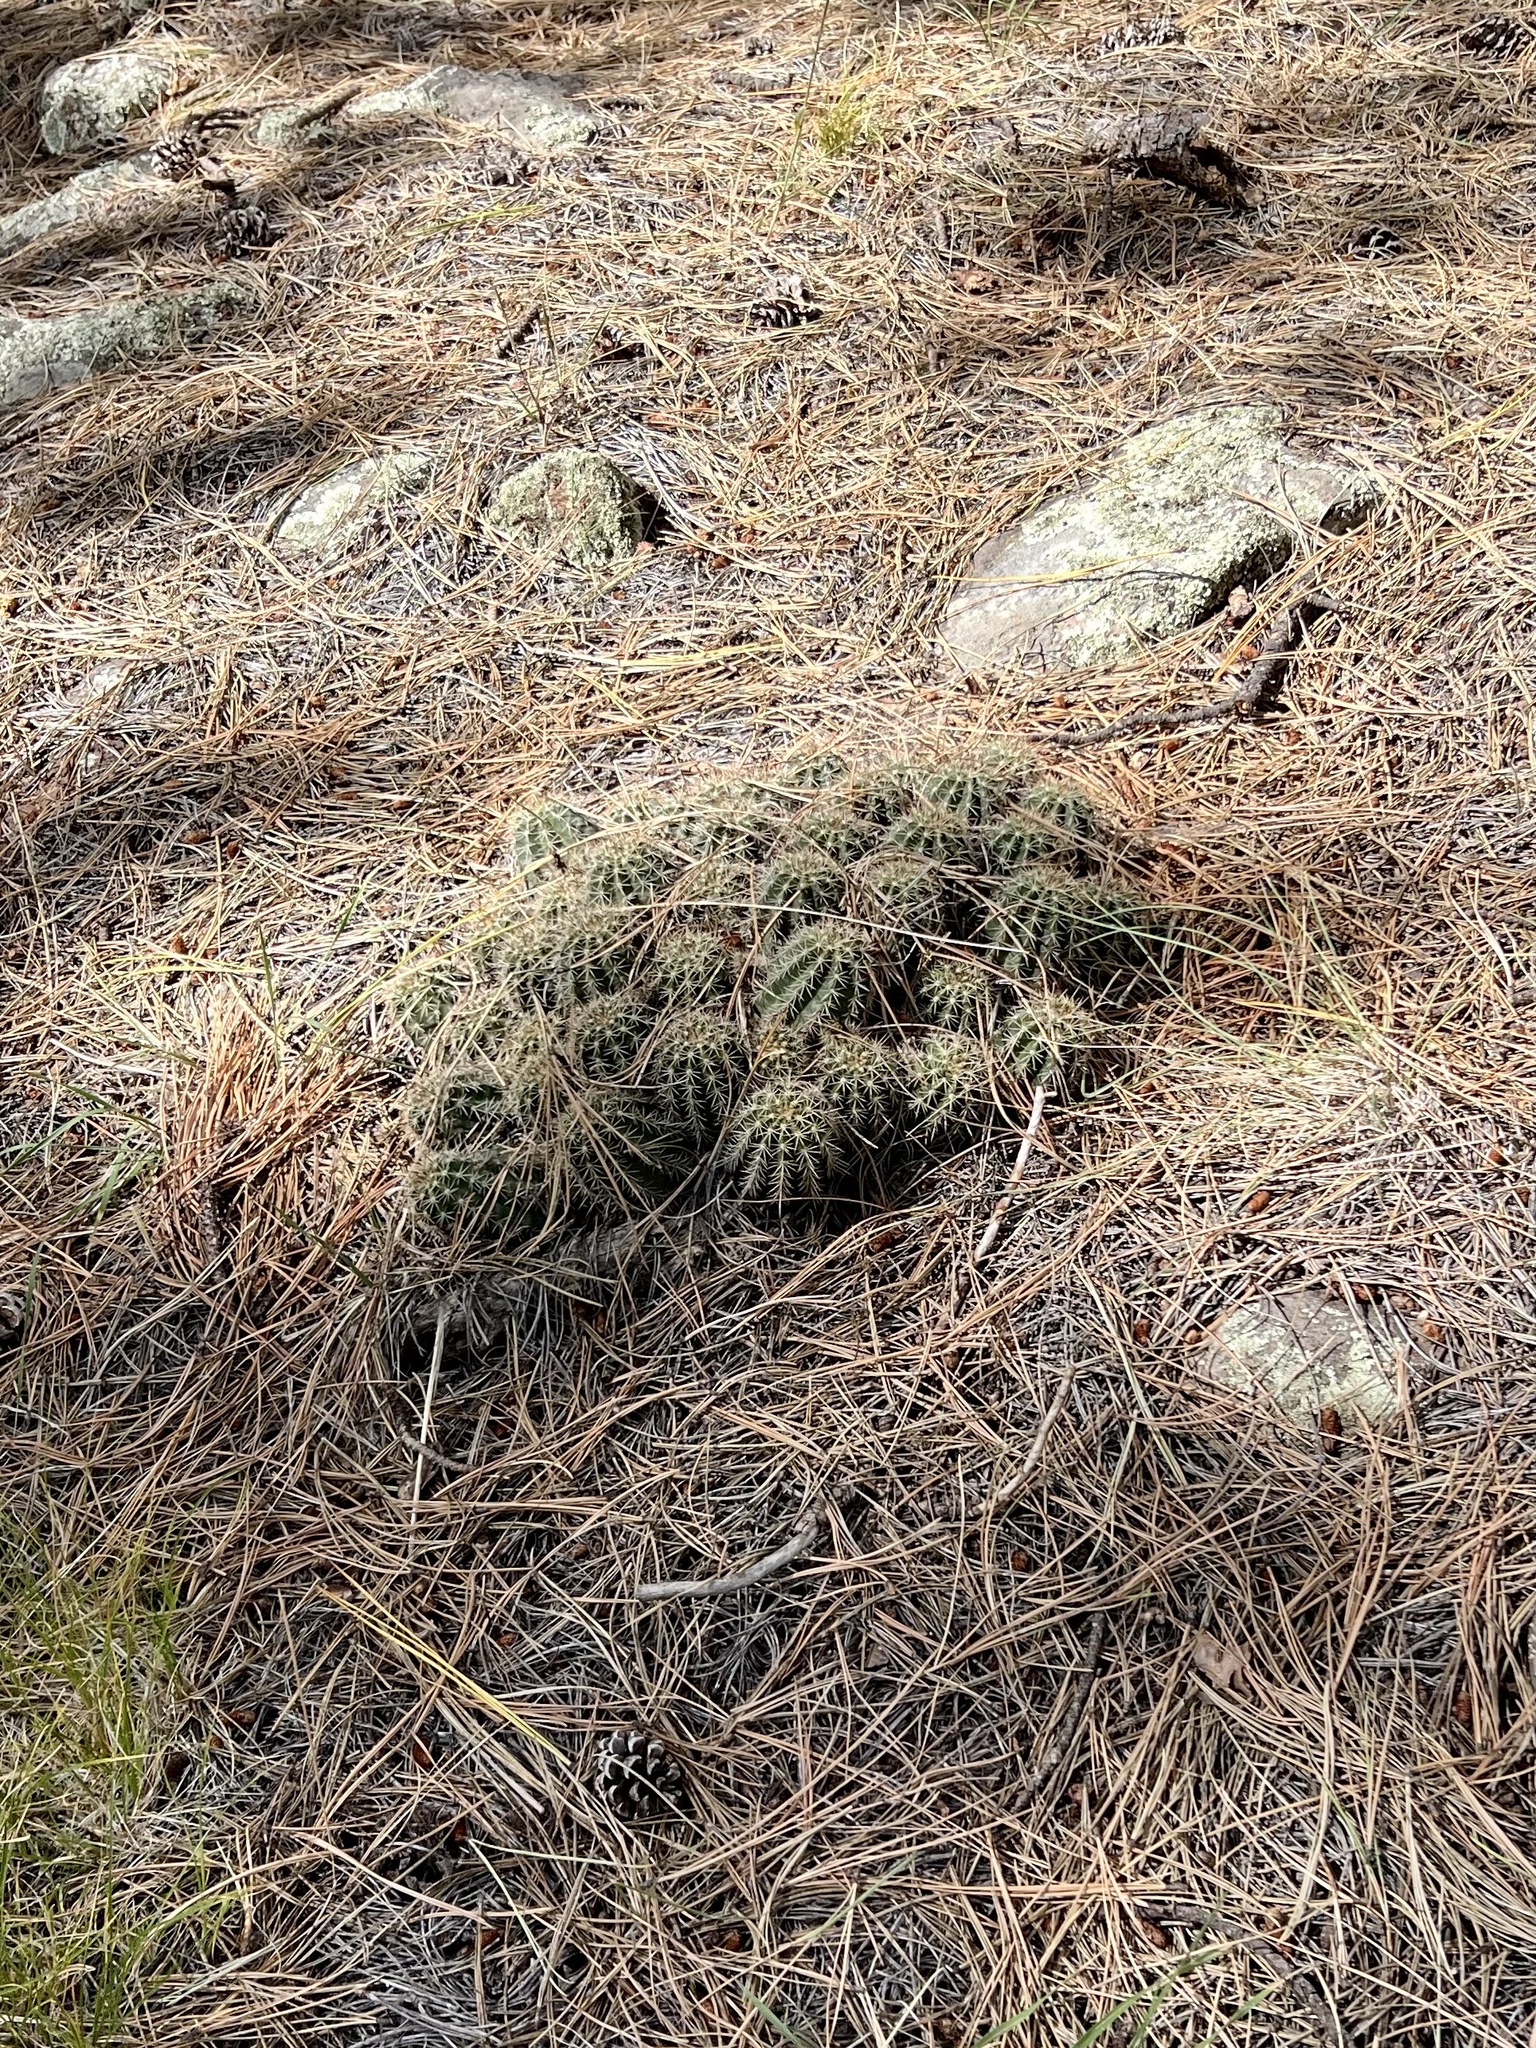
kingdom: Plantae
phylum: Tracheophyta
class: Magnoliopsida
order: Caryophyllales
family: Cactaceae
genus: Echinocereus
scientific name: Echinocereus bakeri
